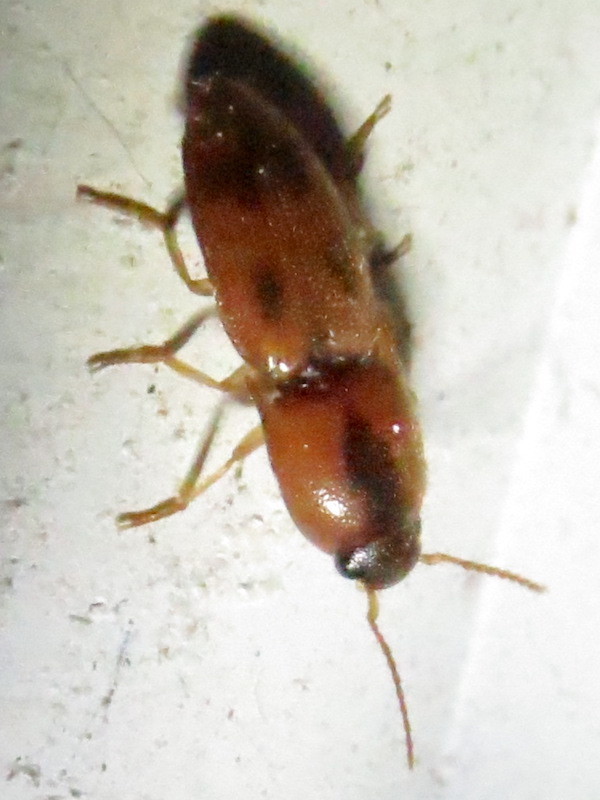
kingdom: Animalia
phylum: Arthropoda
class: Insecta
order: Coleoptera
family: Elateridae
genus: Aeolus
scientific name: Aeolus mellillus
